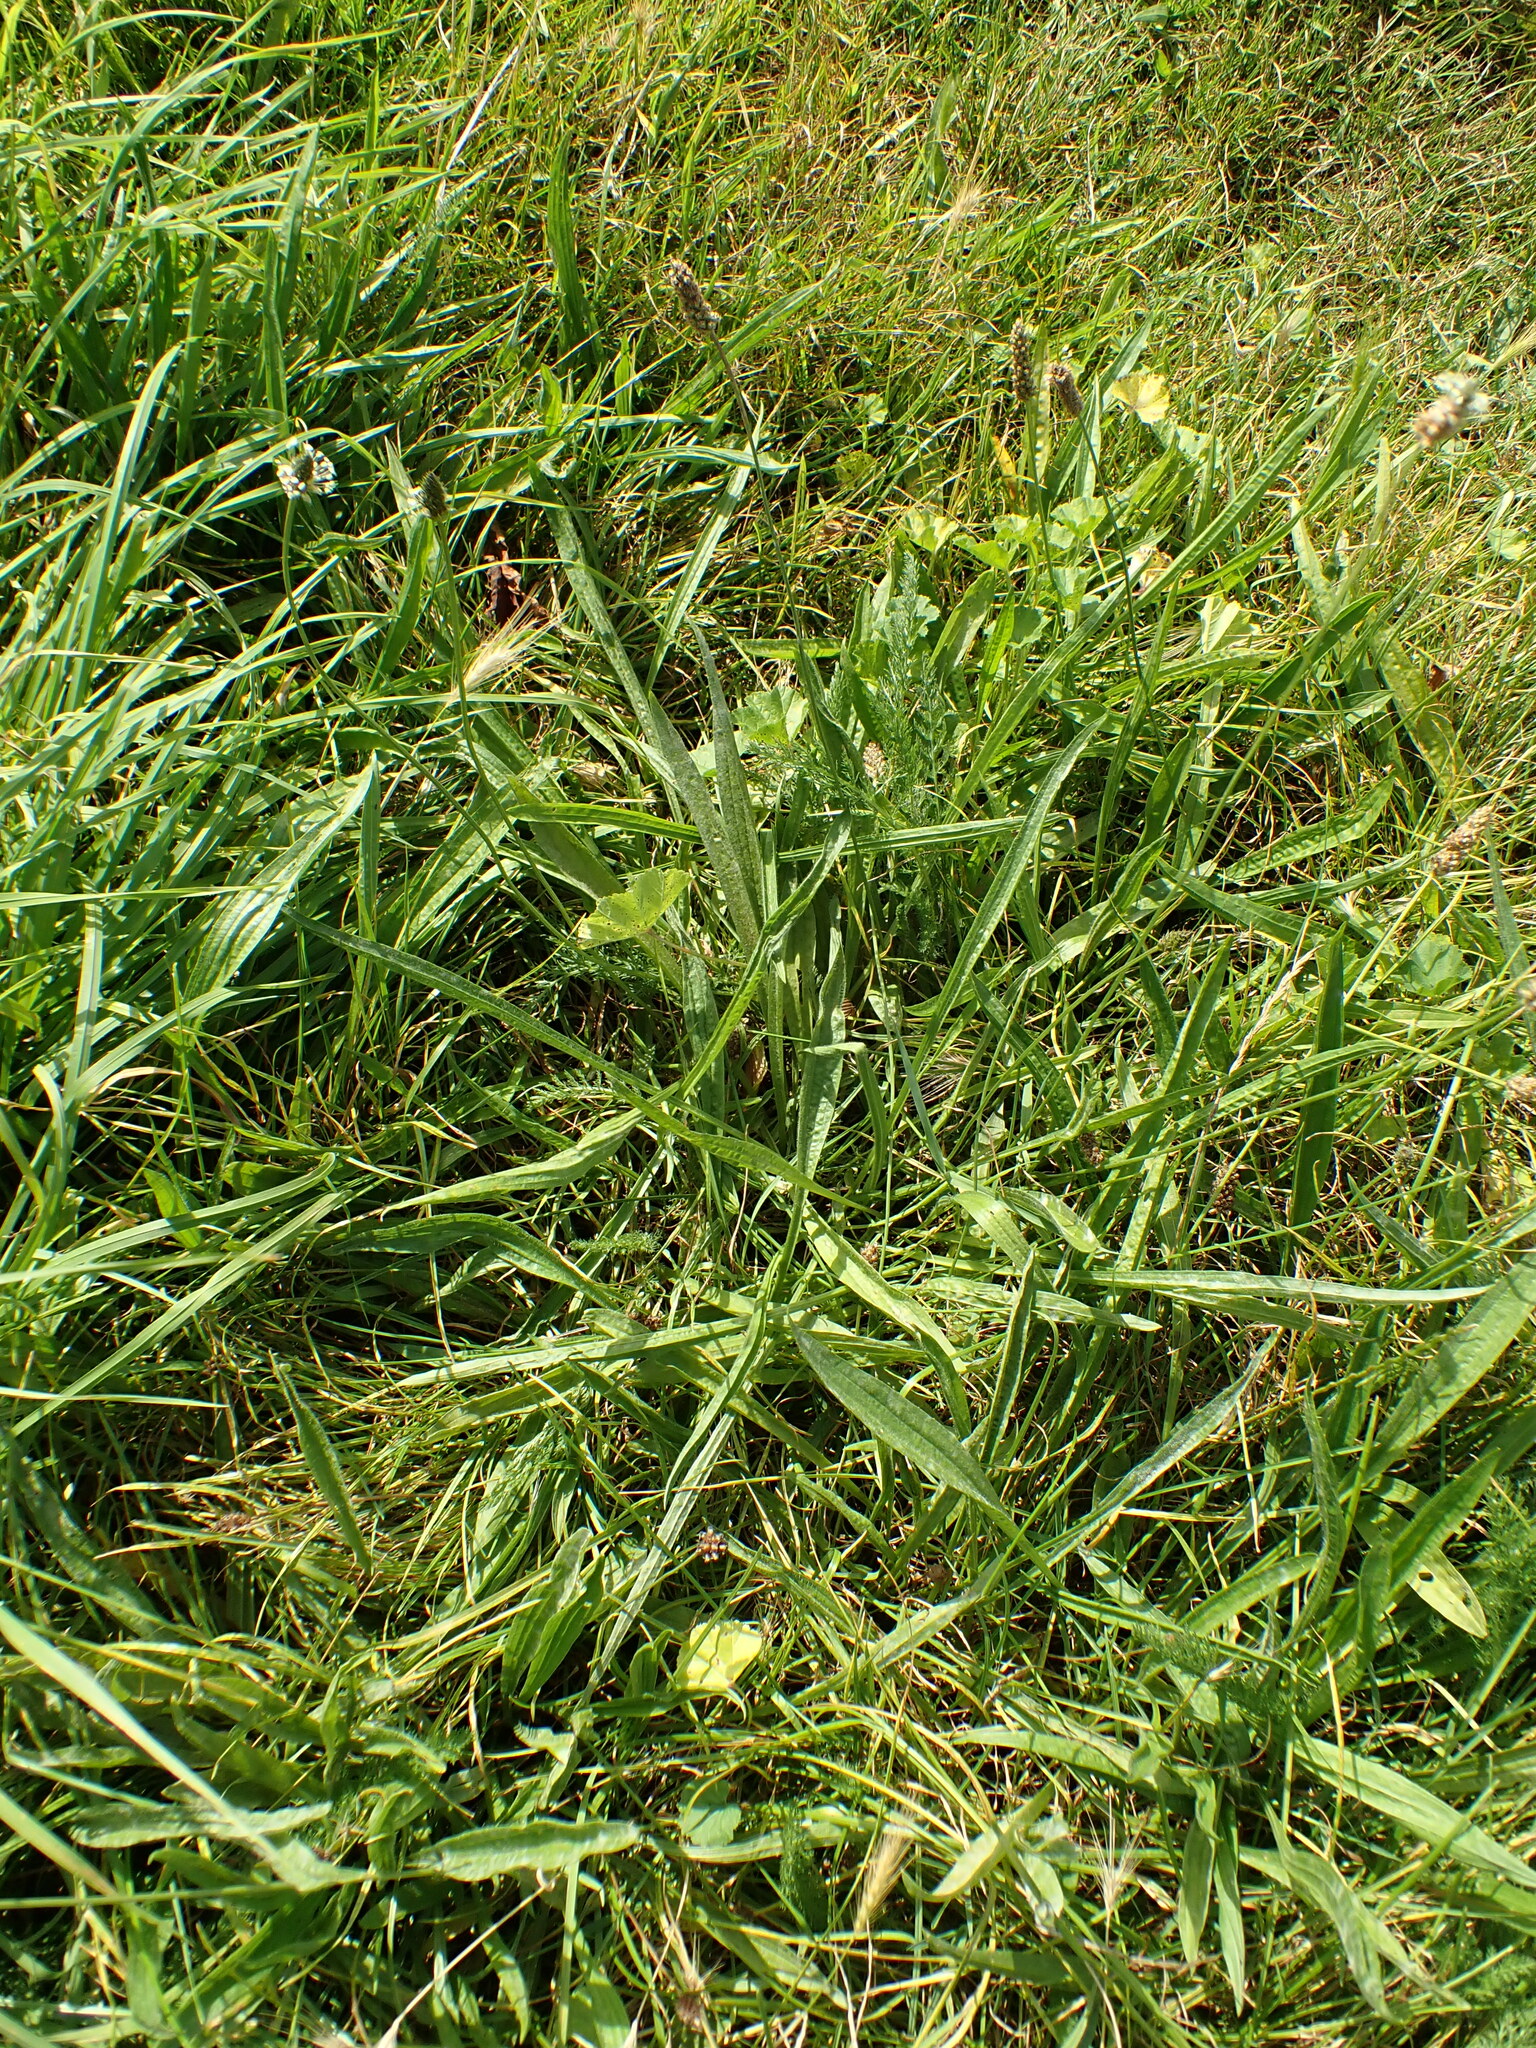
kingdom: Plantae
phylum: Tracheophyta
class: Magnoliopsida
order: Lamiales
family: Plantaginaceae
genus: Plantago
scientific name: Plantago lanceolata
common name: Ribwort plantain
